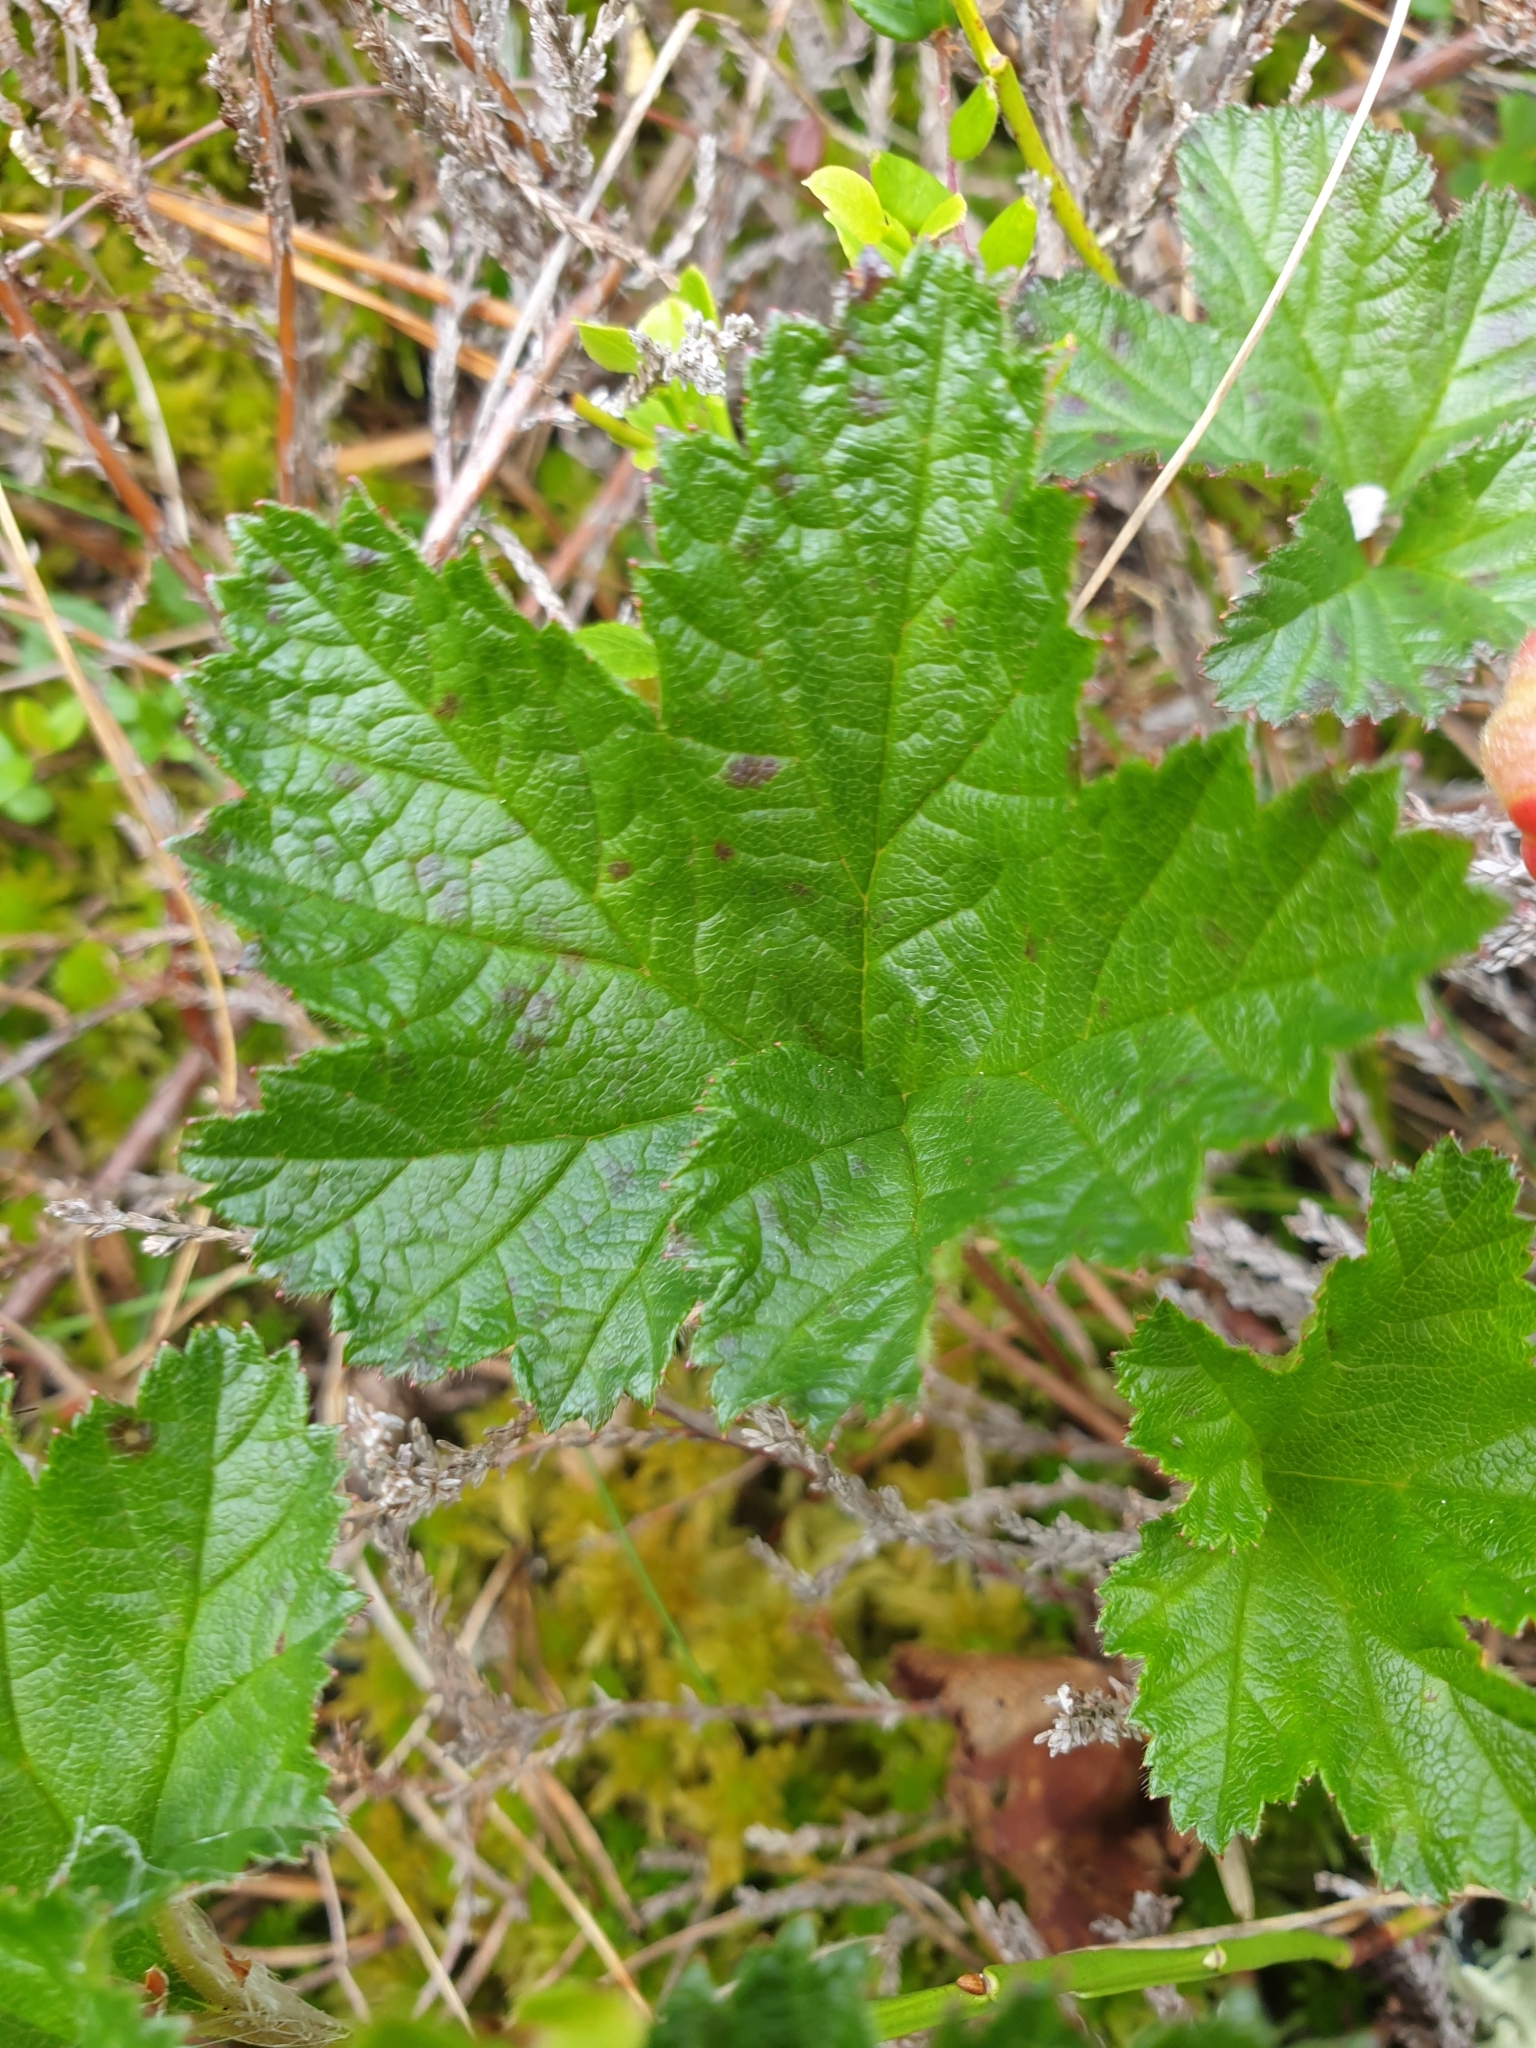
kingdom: Plantae
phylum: Tracheophyta
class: Magnoliopsida
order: Rosales
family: Rosaceae
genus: Rubus
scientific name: Rubus chamaemorus
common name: Cloudberry
